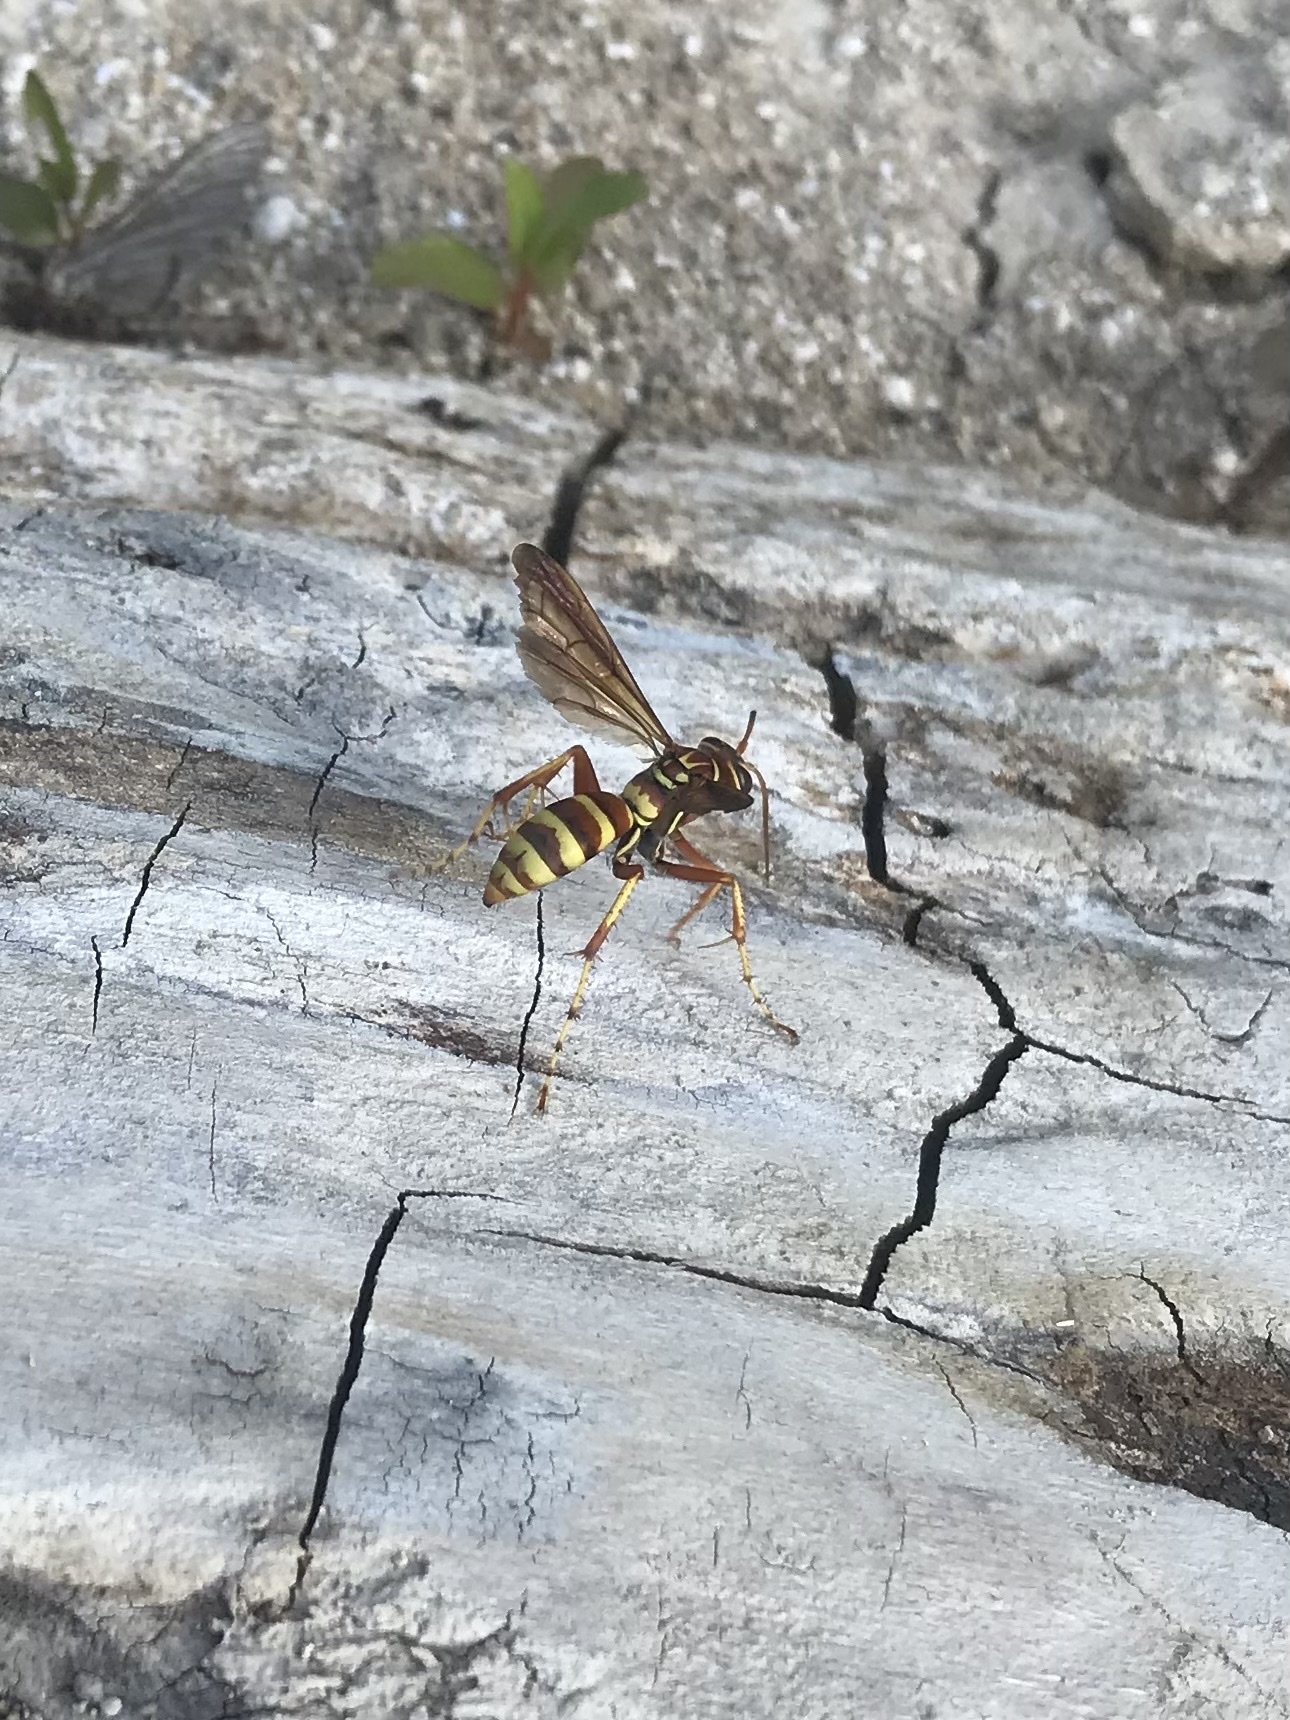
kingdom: Animalia
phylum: Arthropoda
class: Insecta
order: Hymenoptera
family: Pompilidae
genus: Poecilopompilus
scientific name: Poecilopompilus interruptus
